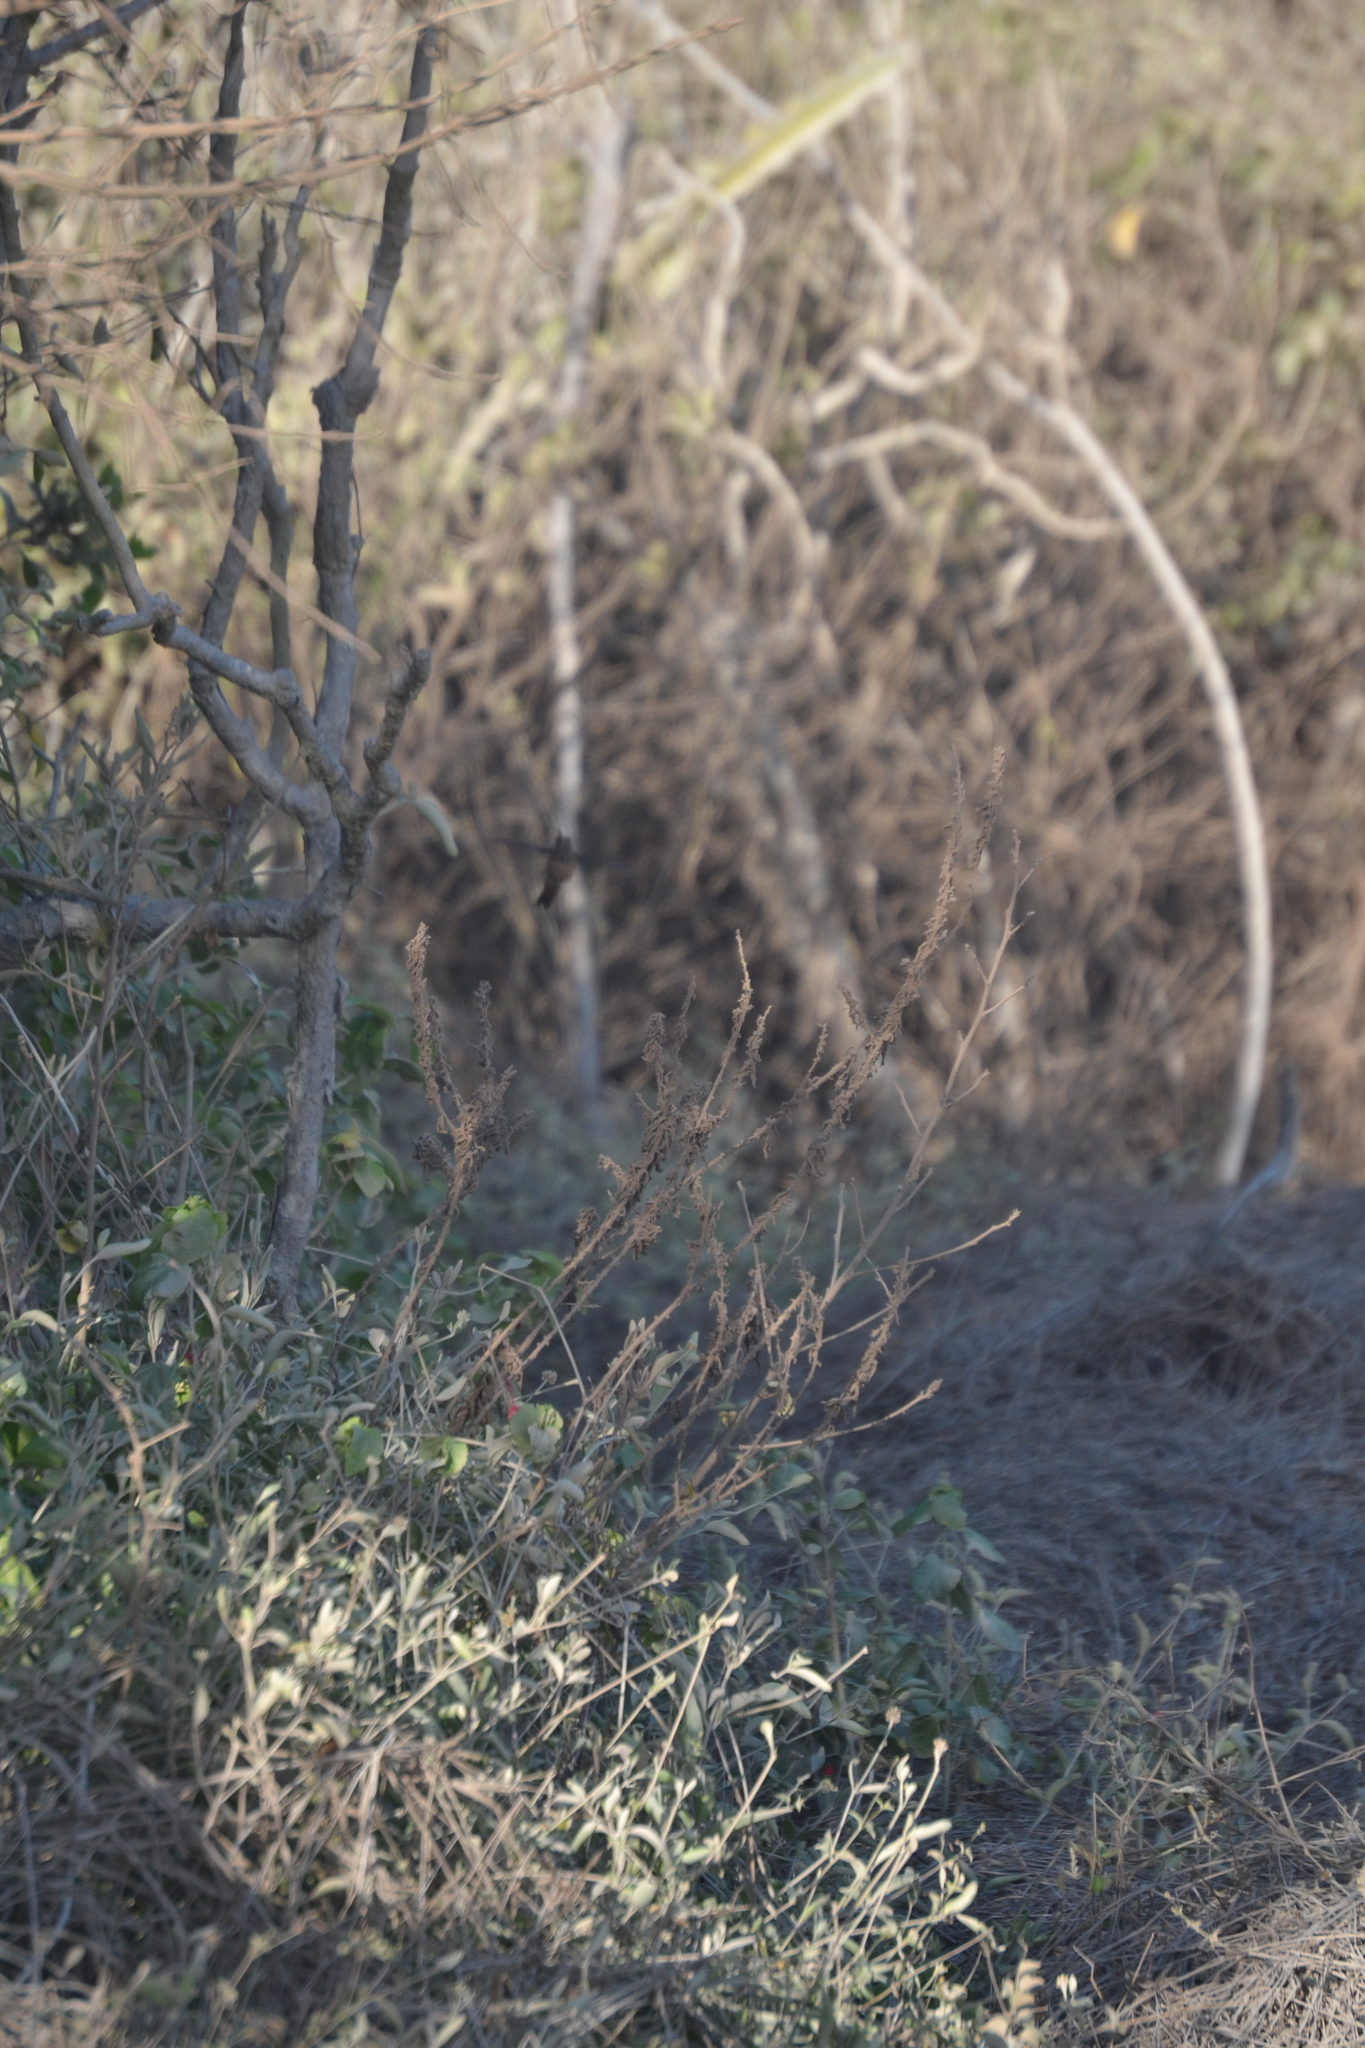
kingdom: Animalia
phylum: Chordata
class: Aves
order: Apodiformes
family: Trochilidae
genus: Amazilia
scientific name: Amazilia yucatanensis
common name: Buff-bellied hummingbird
